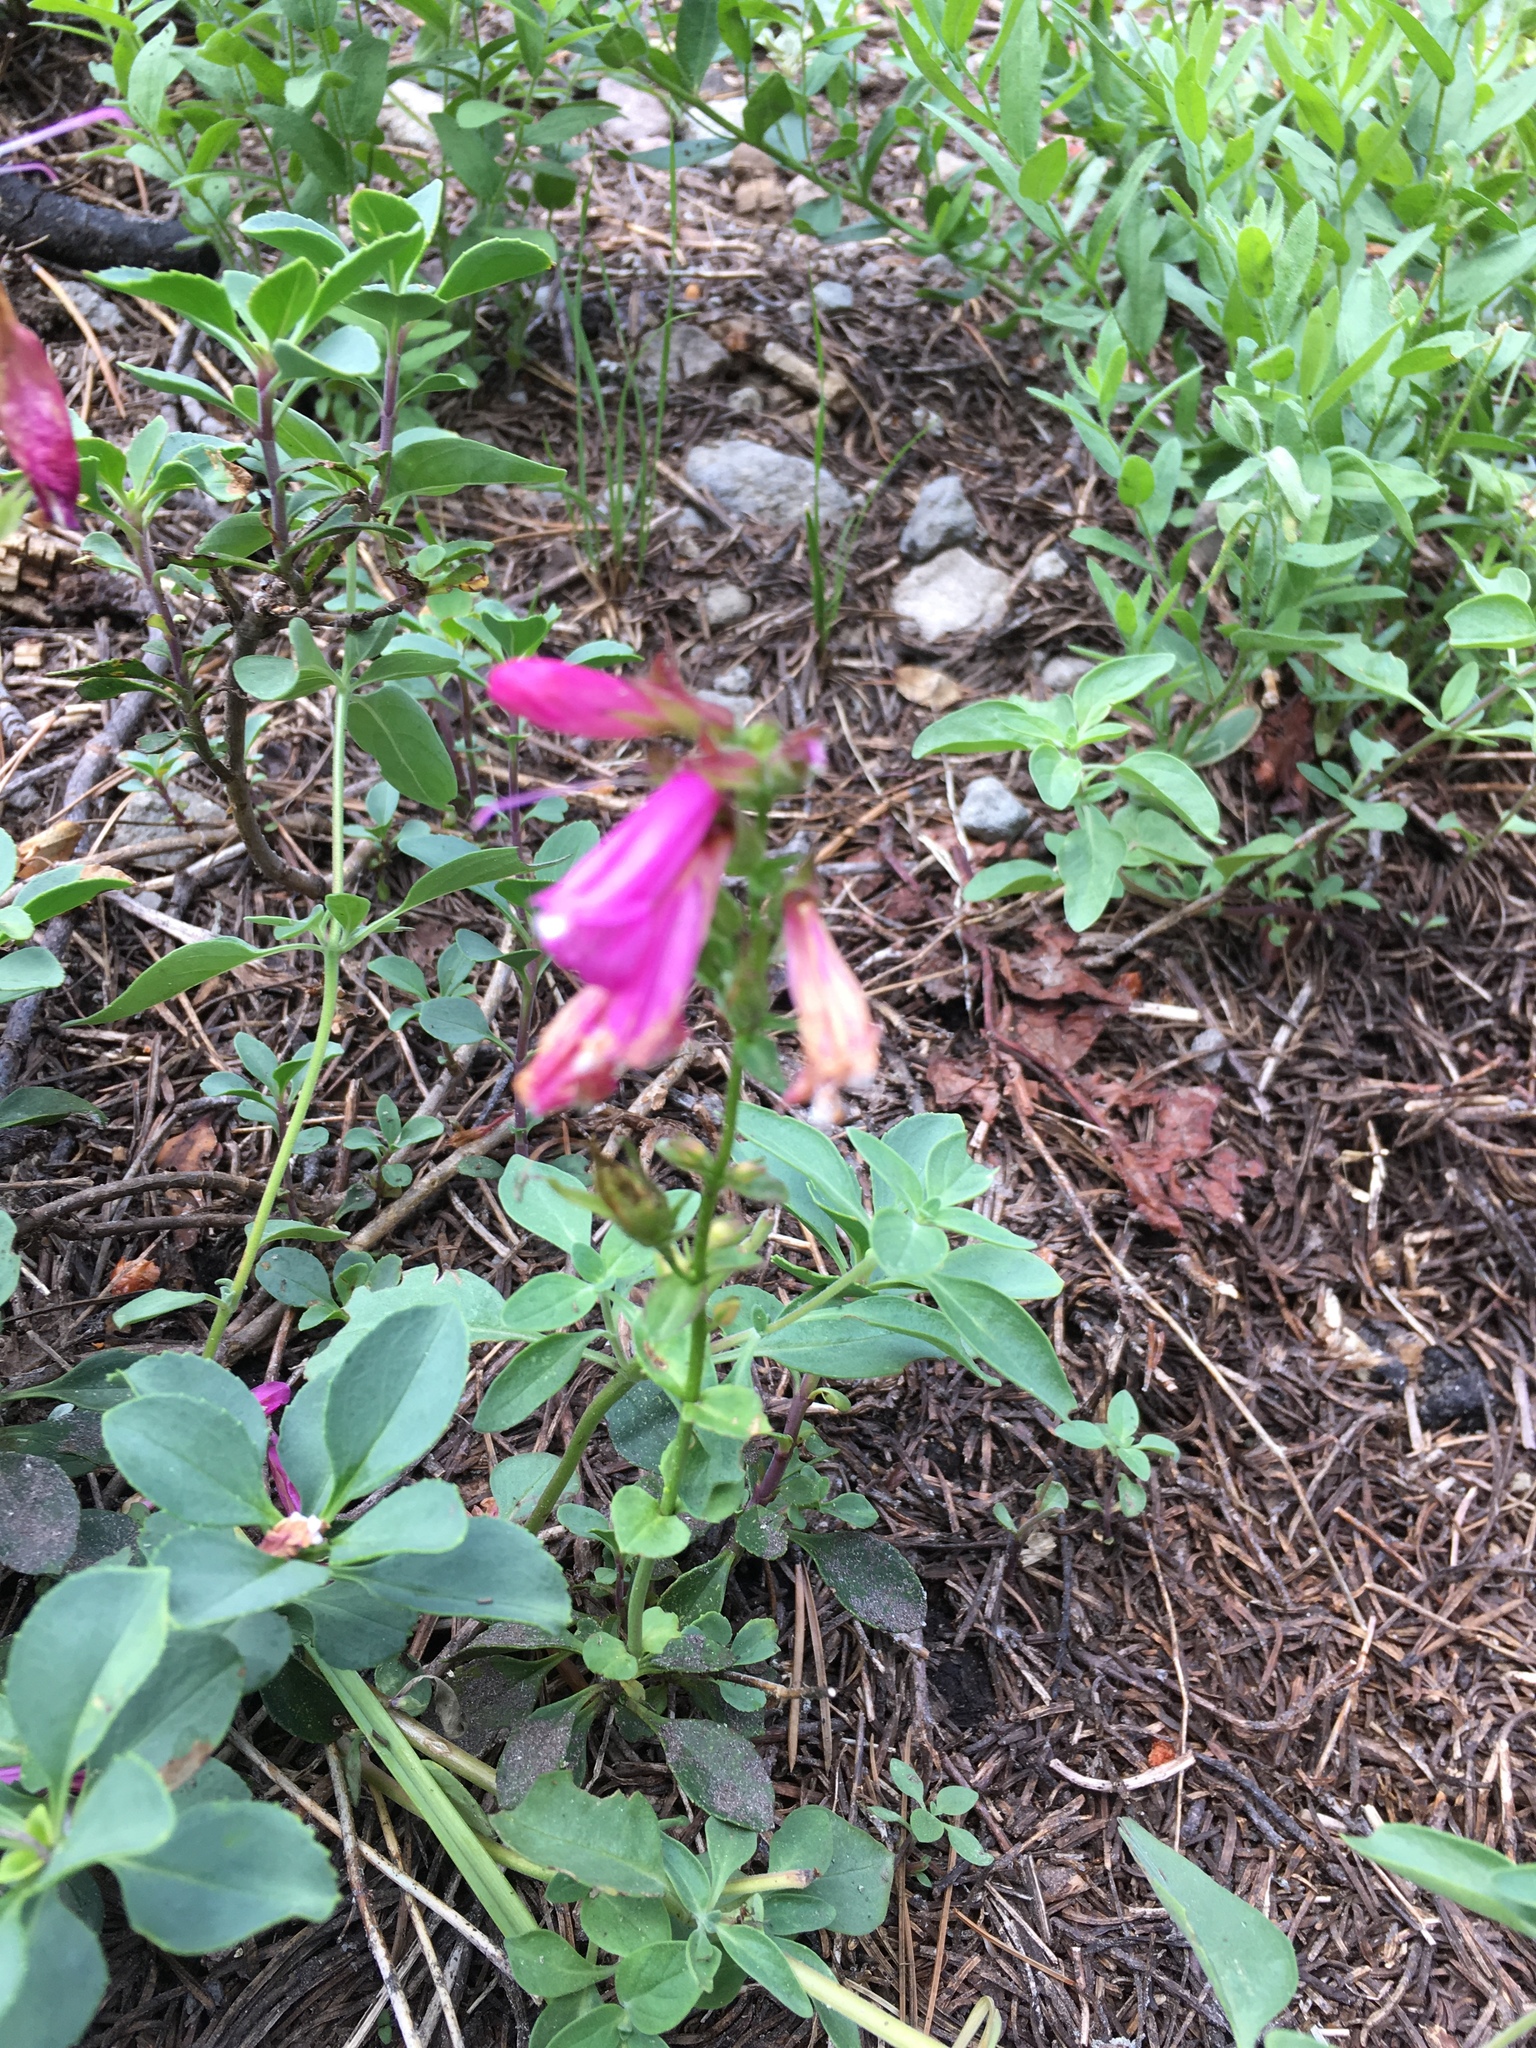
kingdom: Plantae
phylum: Tracheophyta
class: Magnoliopsida
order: Lamiales
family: Plantaginaceae
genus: Penstemon
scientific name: Penstemon newberryi
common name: Mountain-pride
